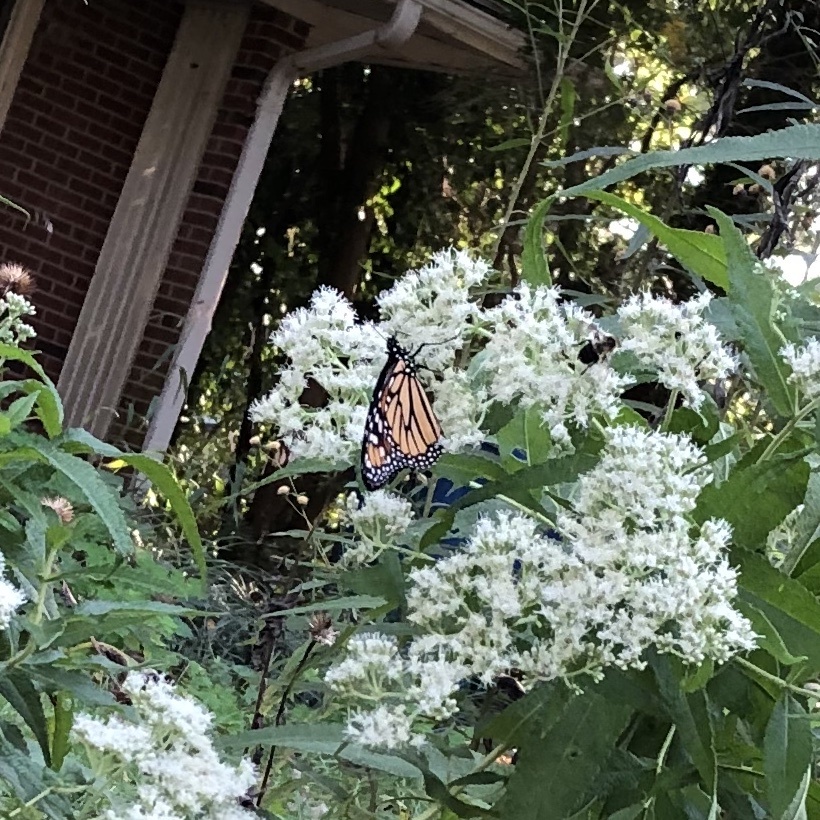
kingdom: Animalia
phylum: Arthropoda
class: Insecta
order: Lepidoptera
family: Nymphalidae
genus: Danaus
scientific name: Danaus plexippus
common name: Monarch
